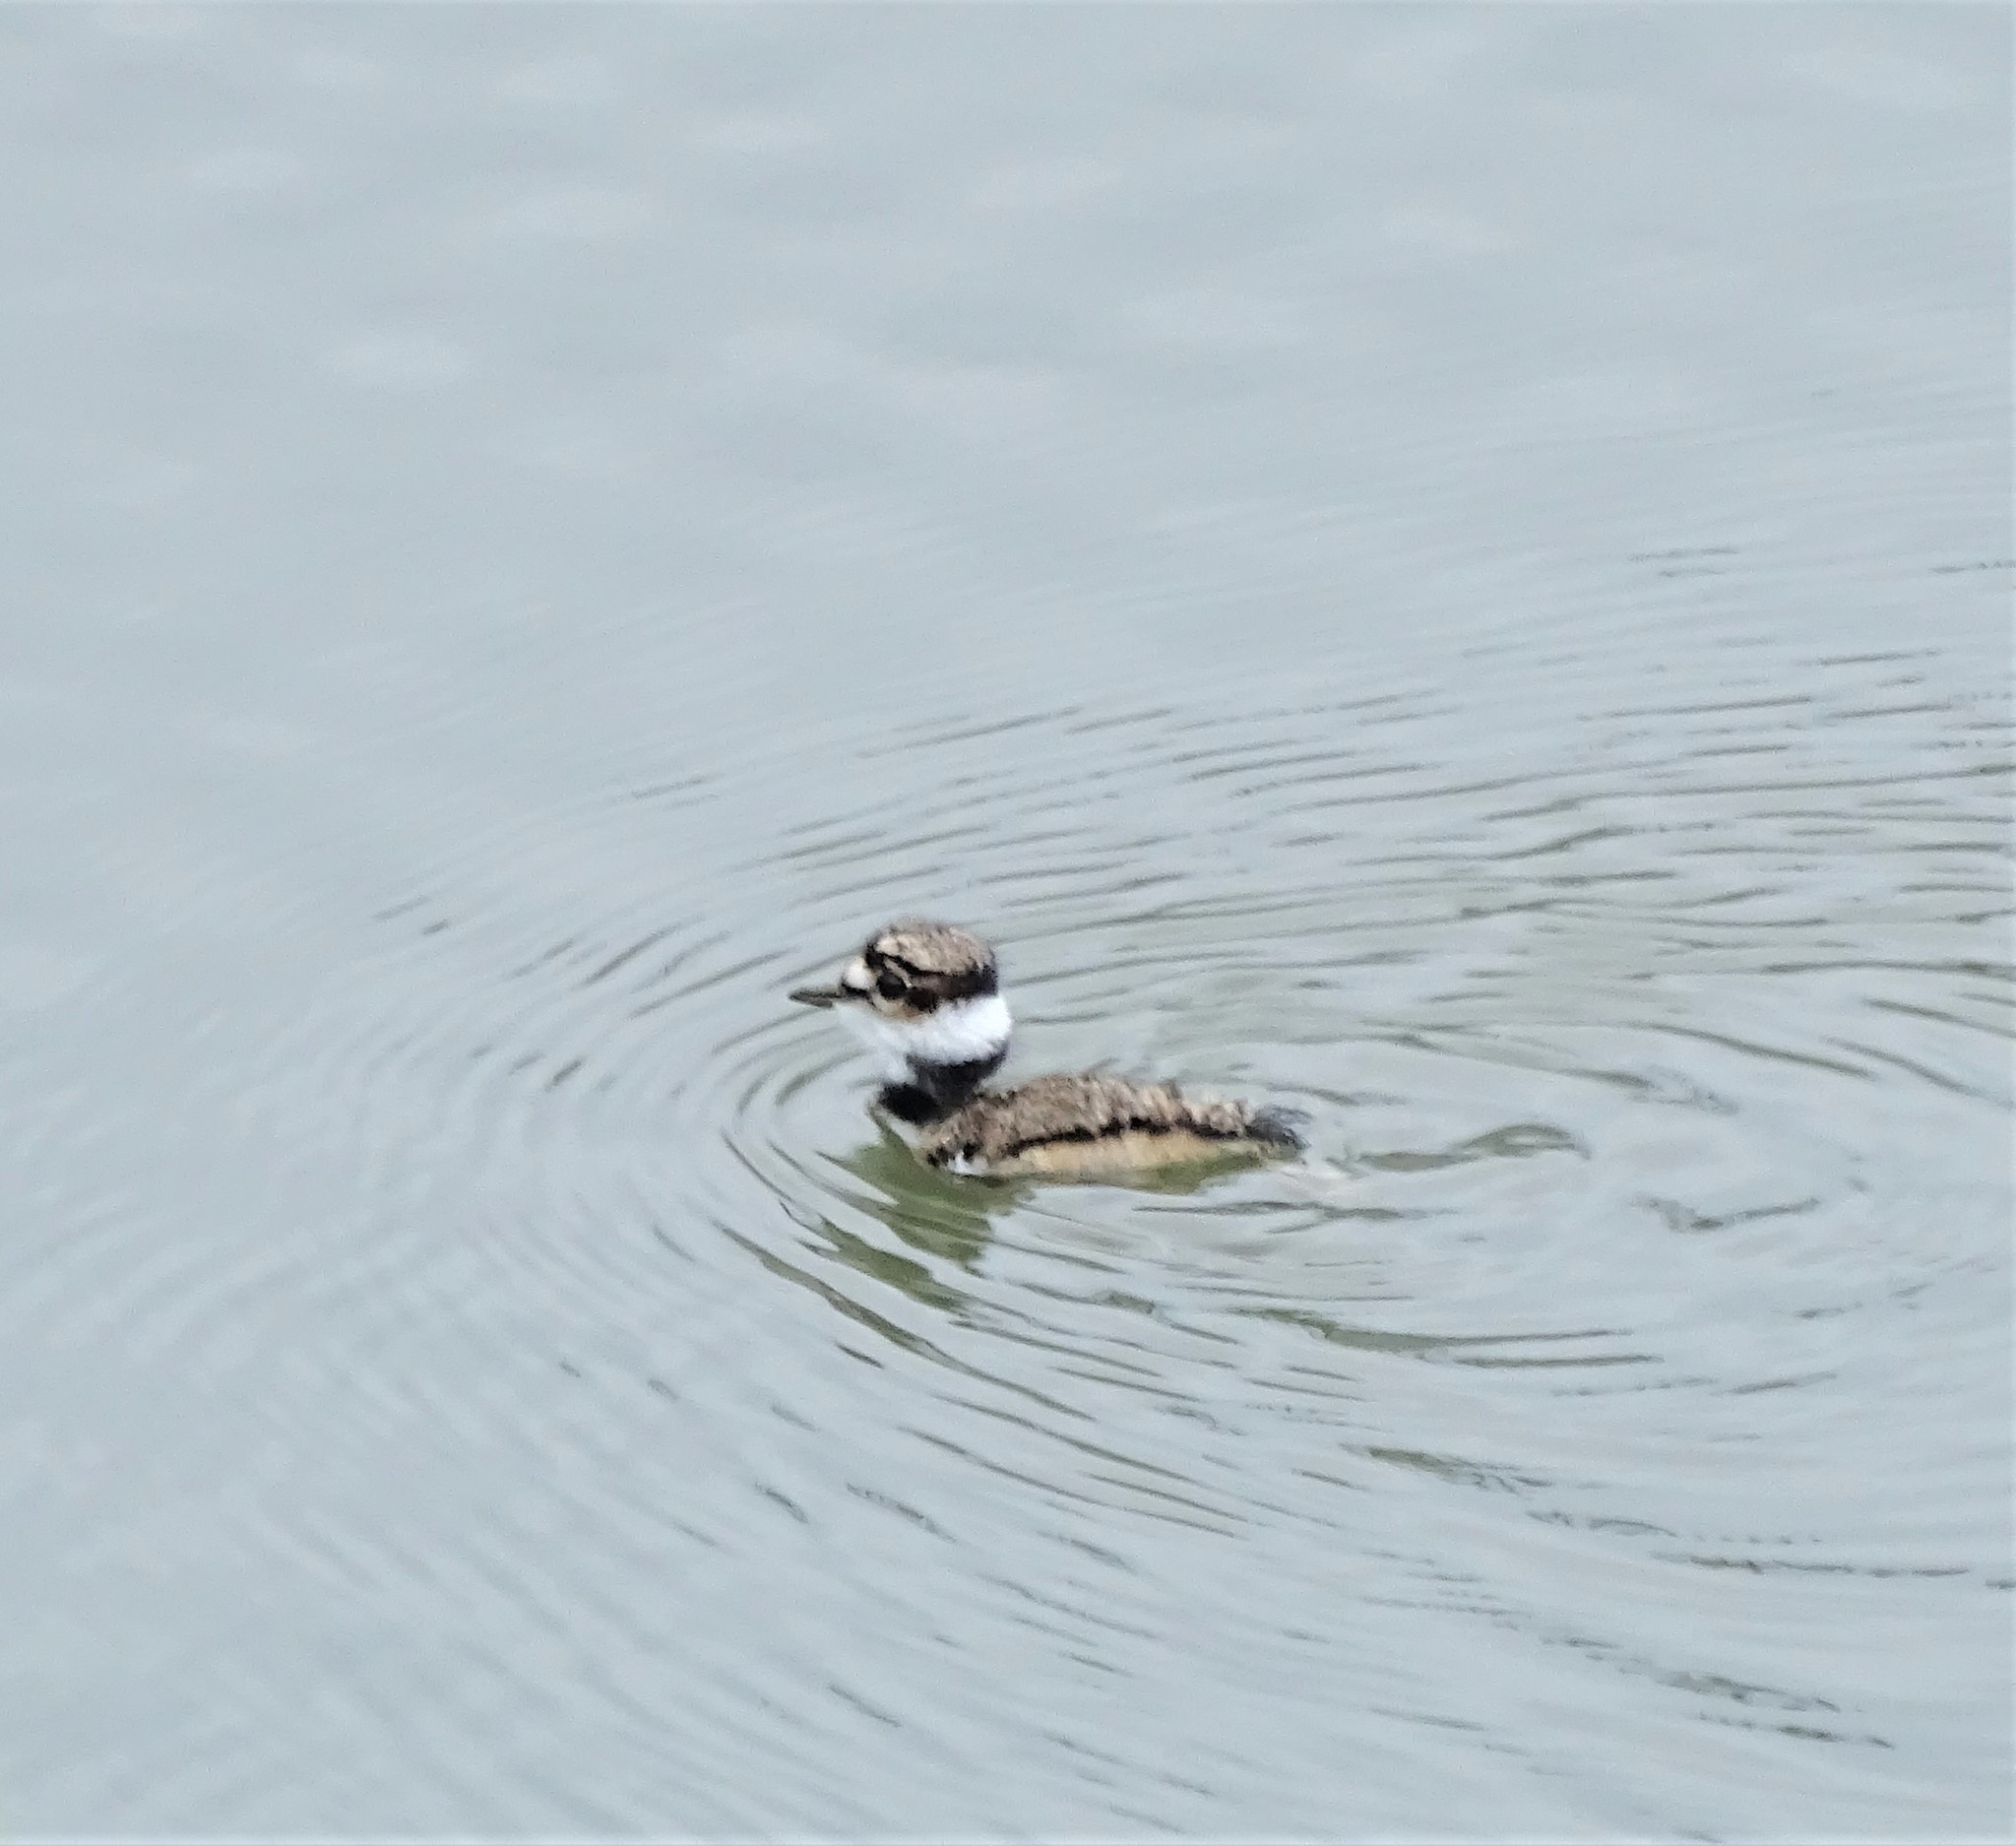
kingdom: Animalia
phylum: Chordata
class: Aves
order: Charadriiformes
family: Charadriidae
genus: Charadrius
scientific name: Charadrius vociferus
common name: Killdeer
